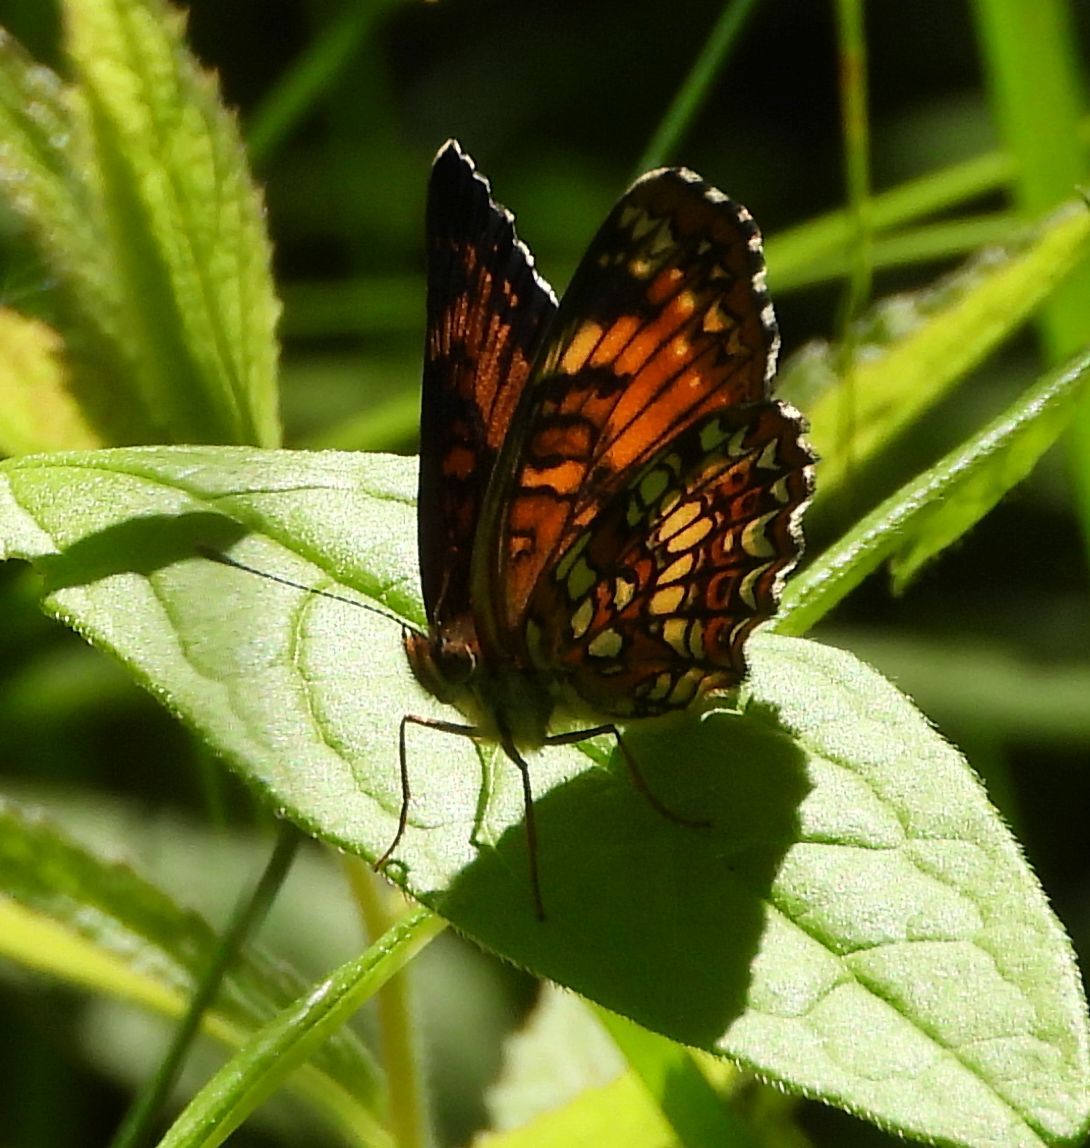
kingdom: Animalia
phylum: Arthropoda
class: Insecta
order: Lepidoptera
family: Nymphalidae
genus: Chlosyne
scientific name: Chlosyne harrisii
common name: Harris's checkerspot
